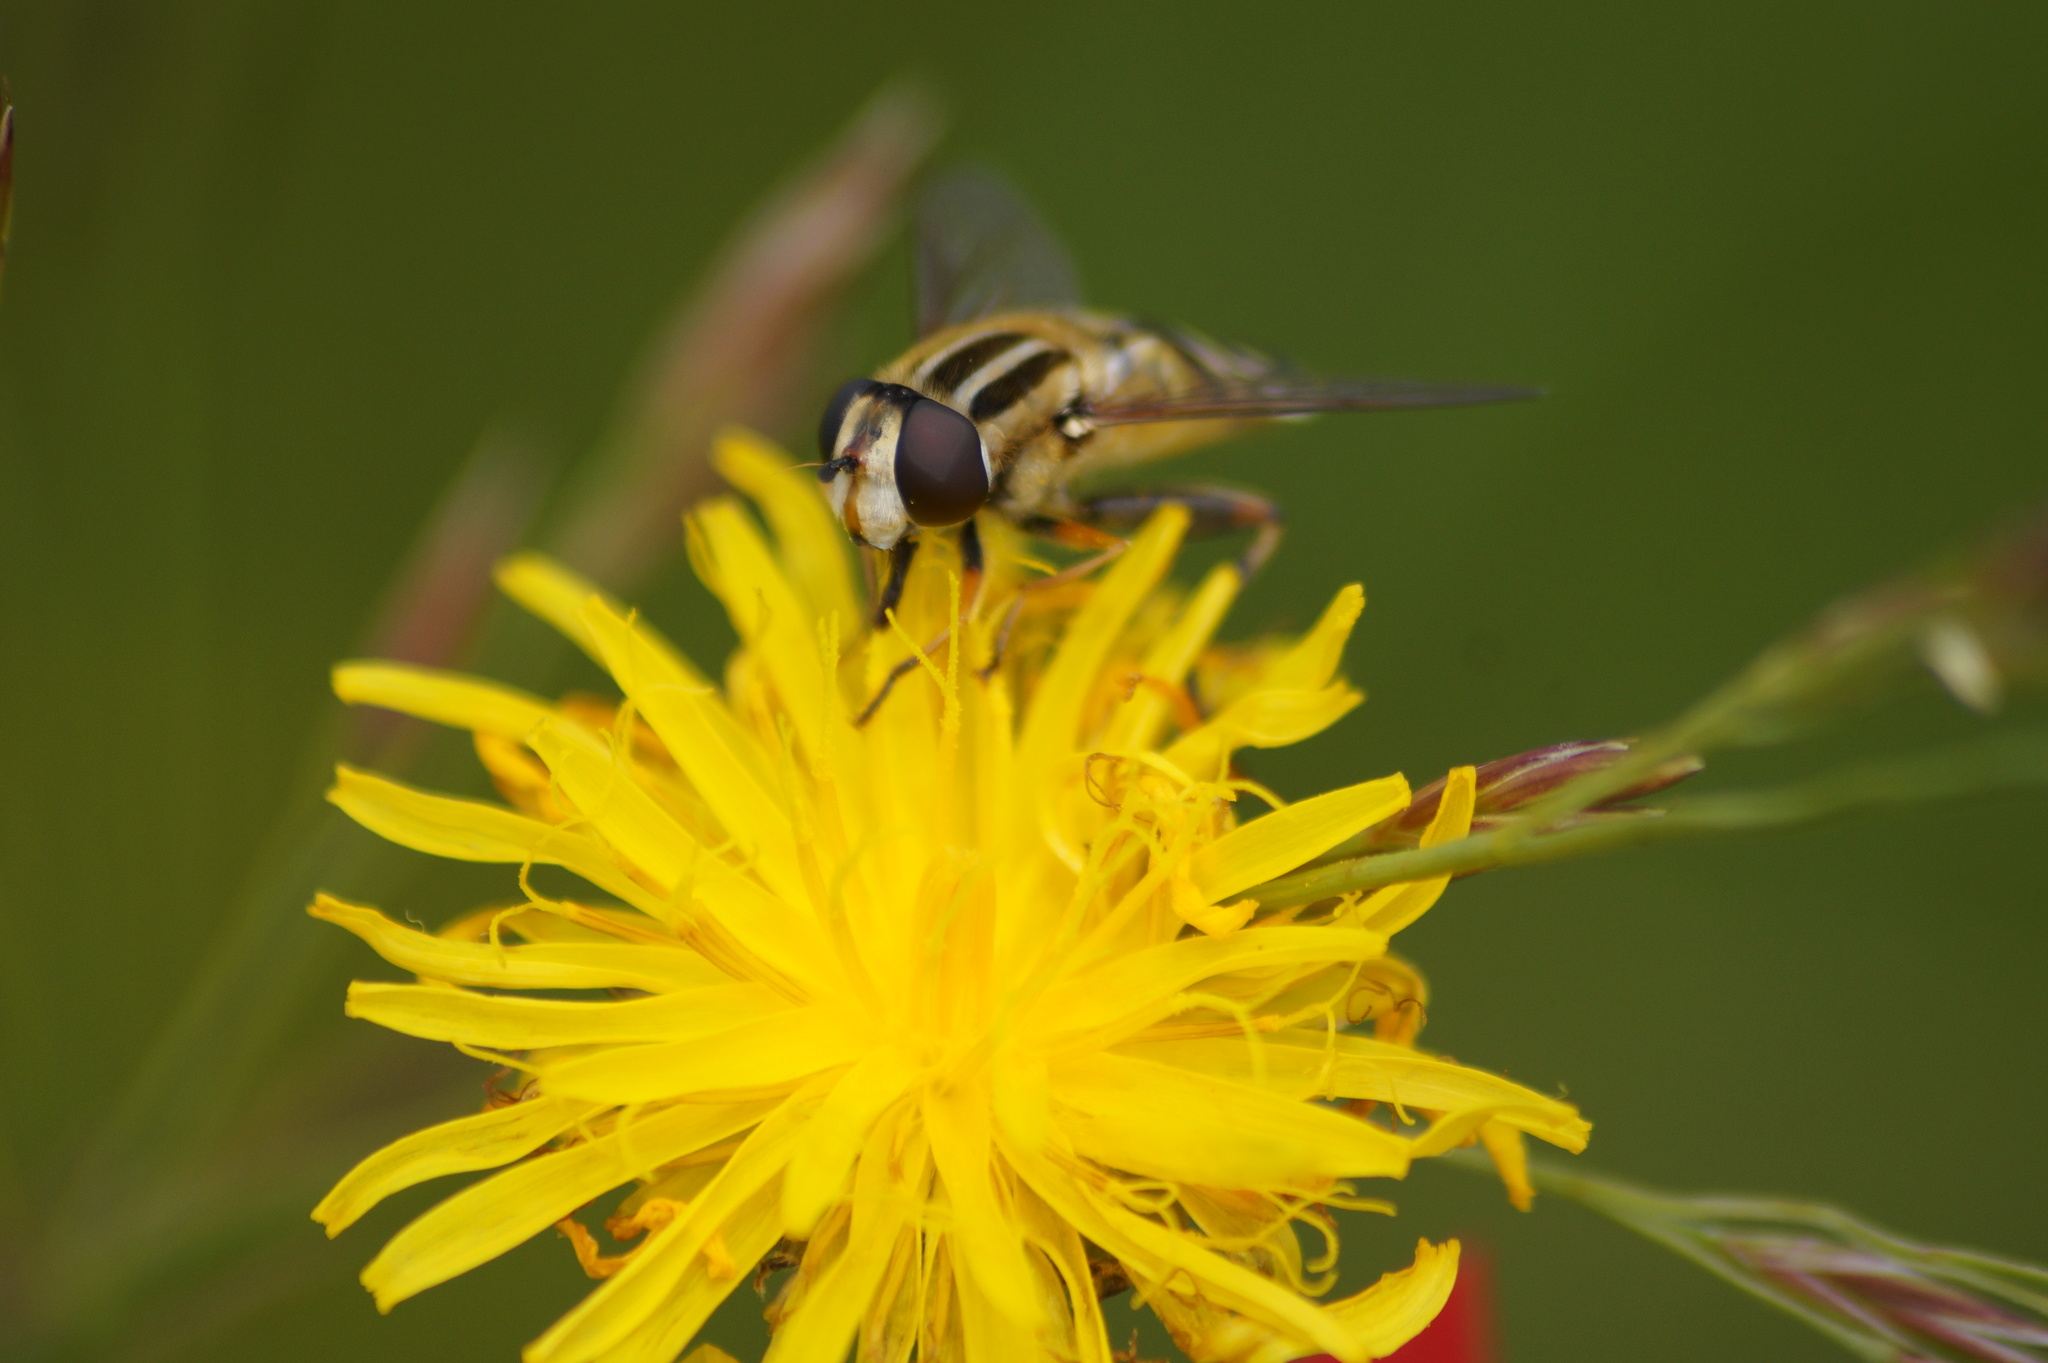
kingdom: Animalia
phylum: Arthropoda
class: Insecta
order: Diptera
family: Syrphidae
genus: Helophilus
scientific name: Helophilus trivittatus
